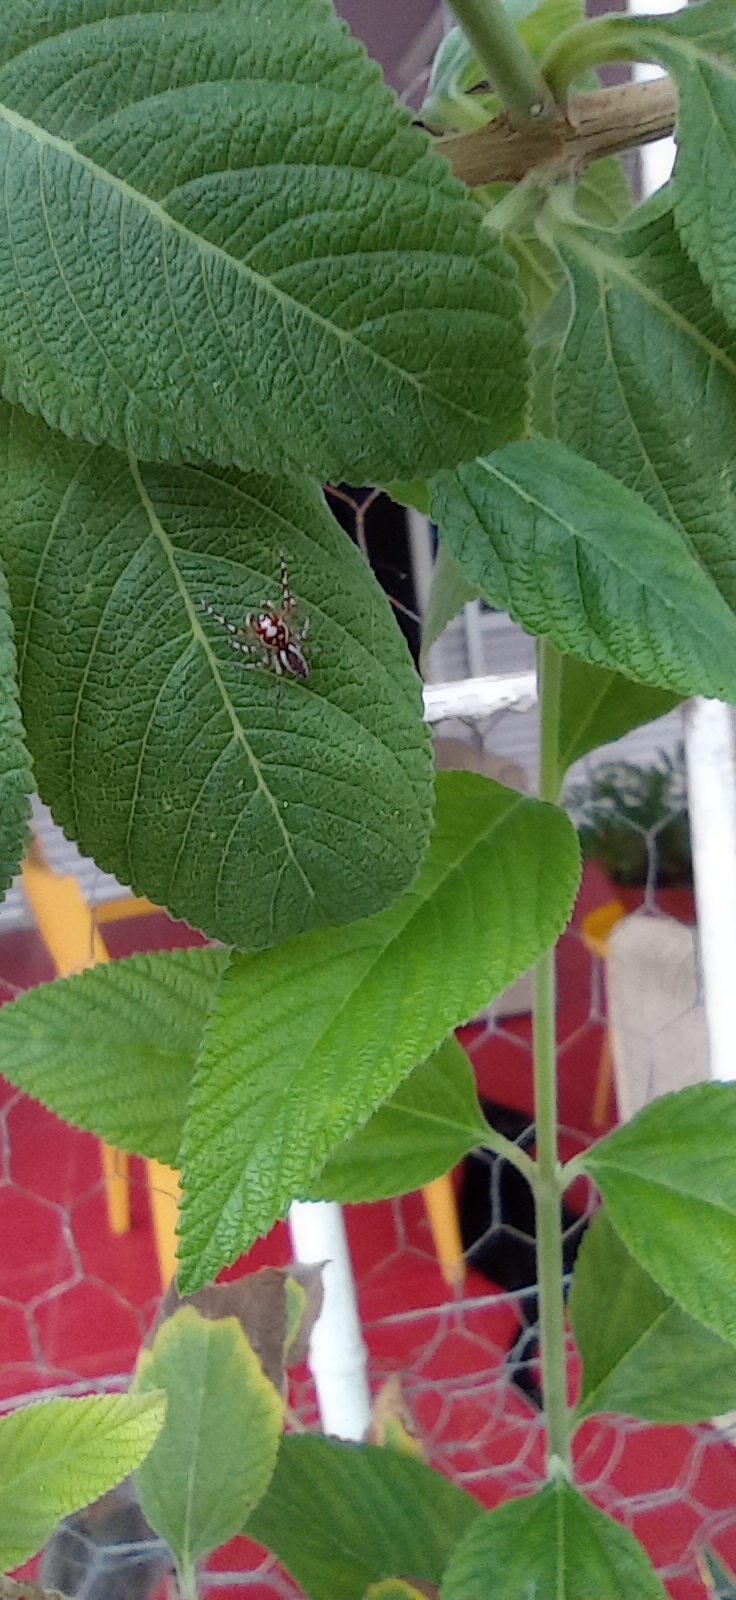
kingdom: Animalia
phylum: Arthropoda
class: Arachnida
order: Araneae
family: Salticidae
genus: Chira
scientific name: Chira
